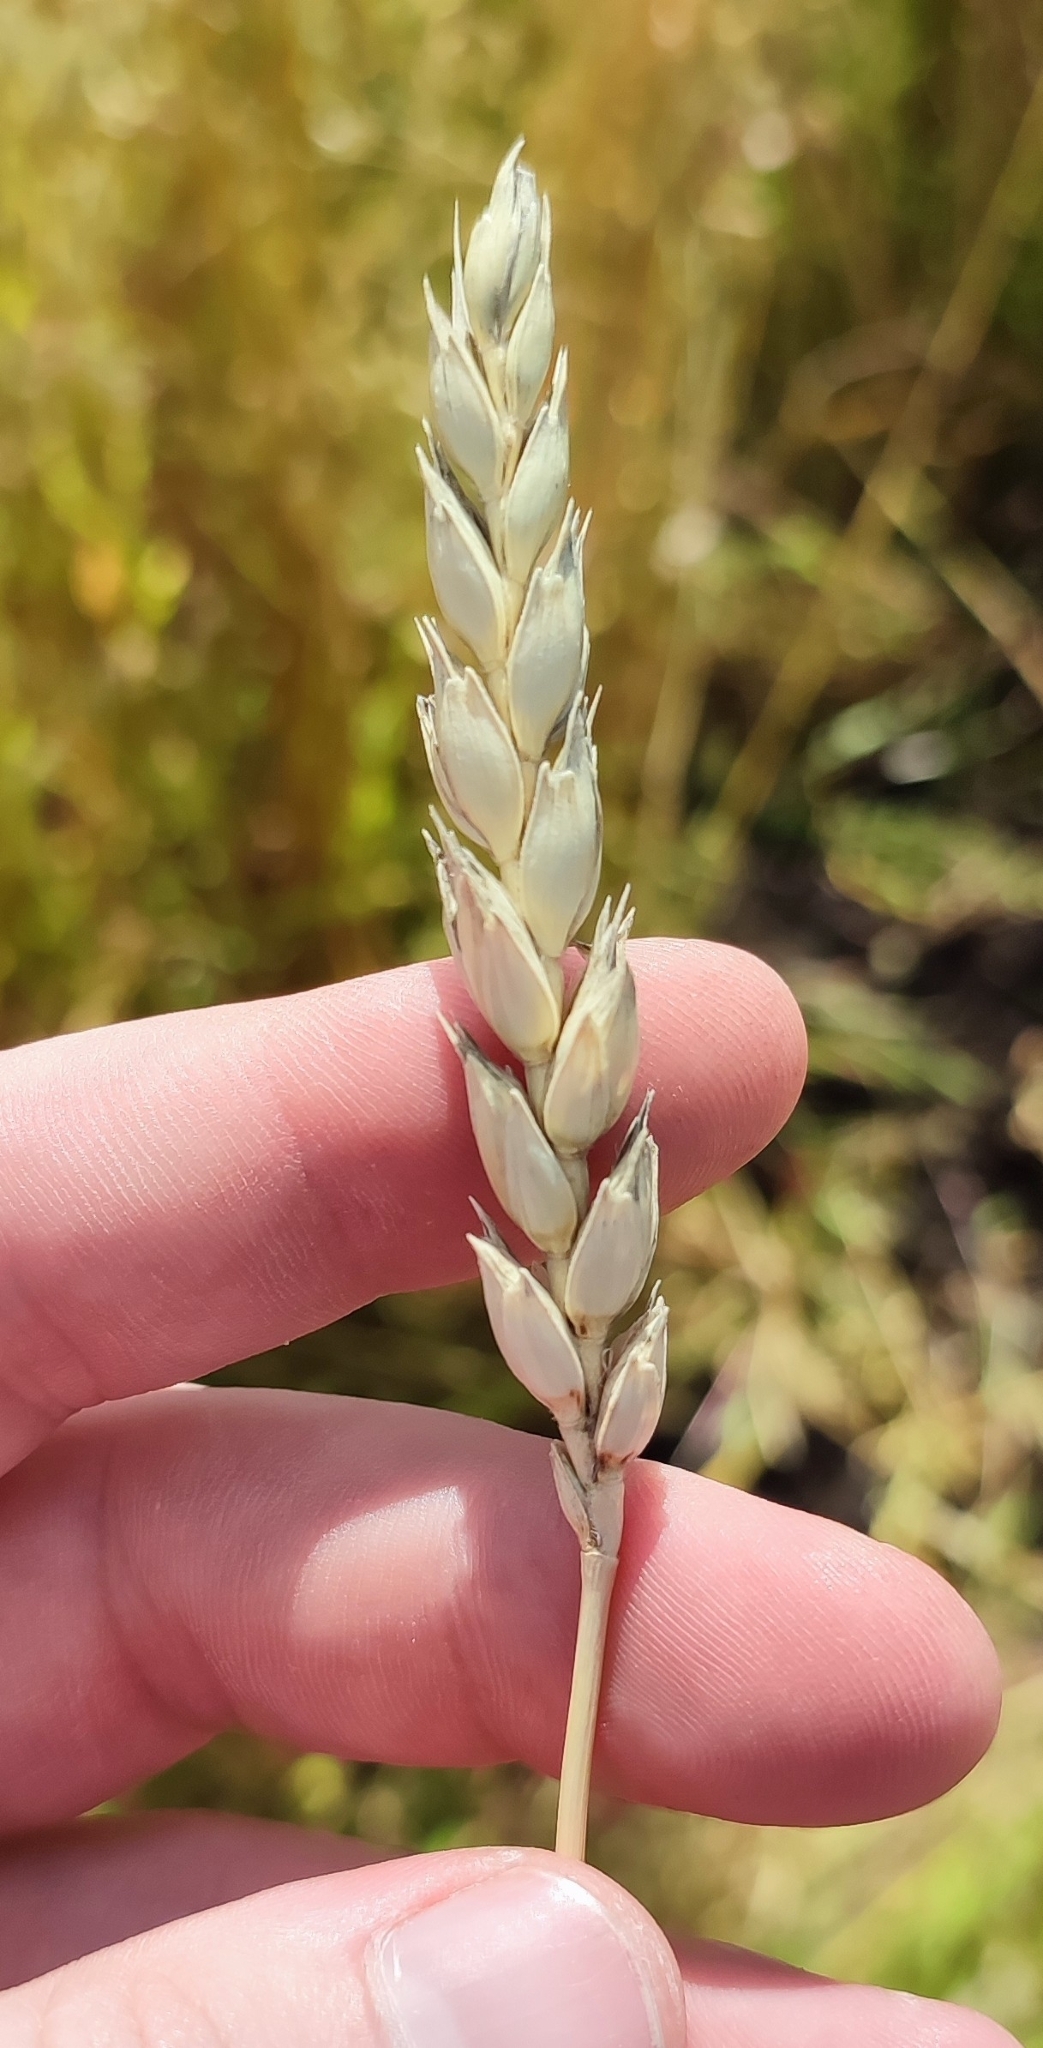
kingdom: Plantae
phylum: Tracheophyta
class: Liliopsida
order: Poales
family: Poaceae
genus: Triticum
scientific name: Triticum aestivum
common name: Common wheat
